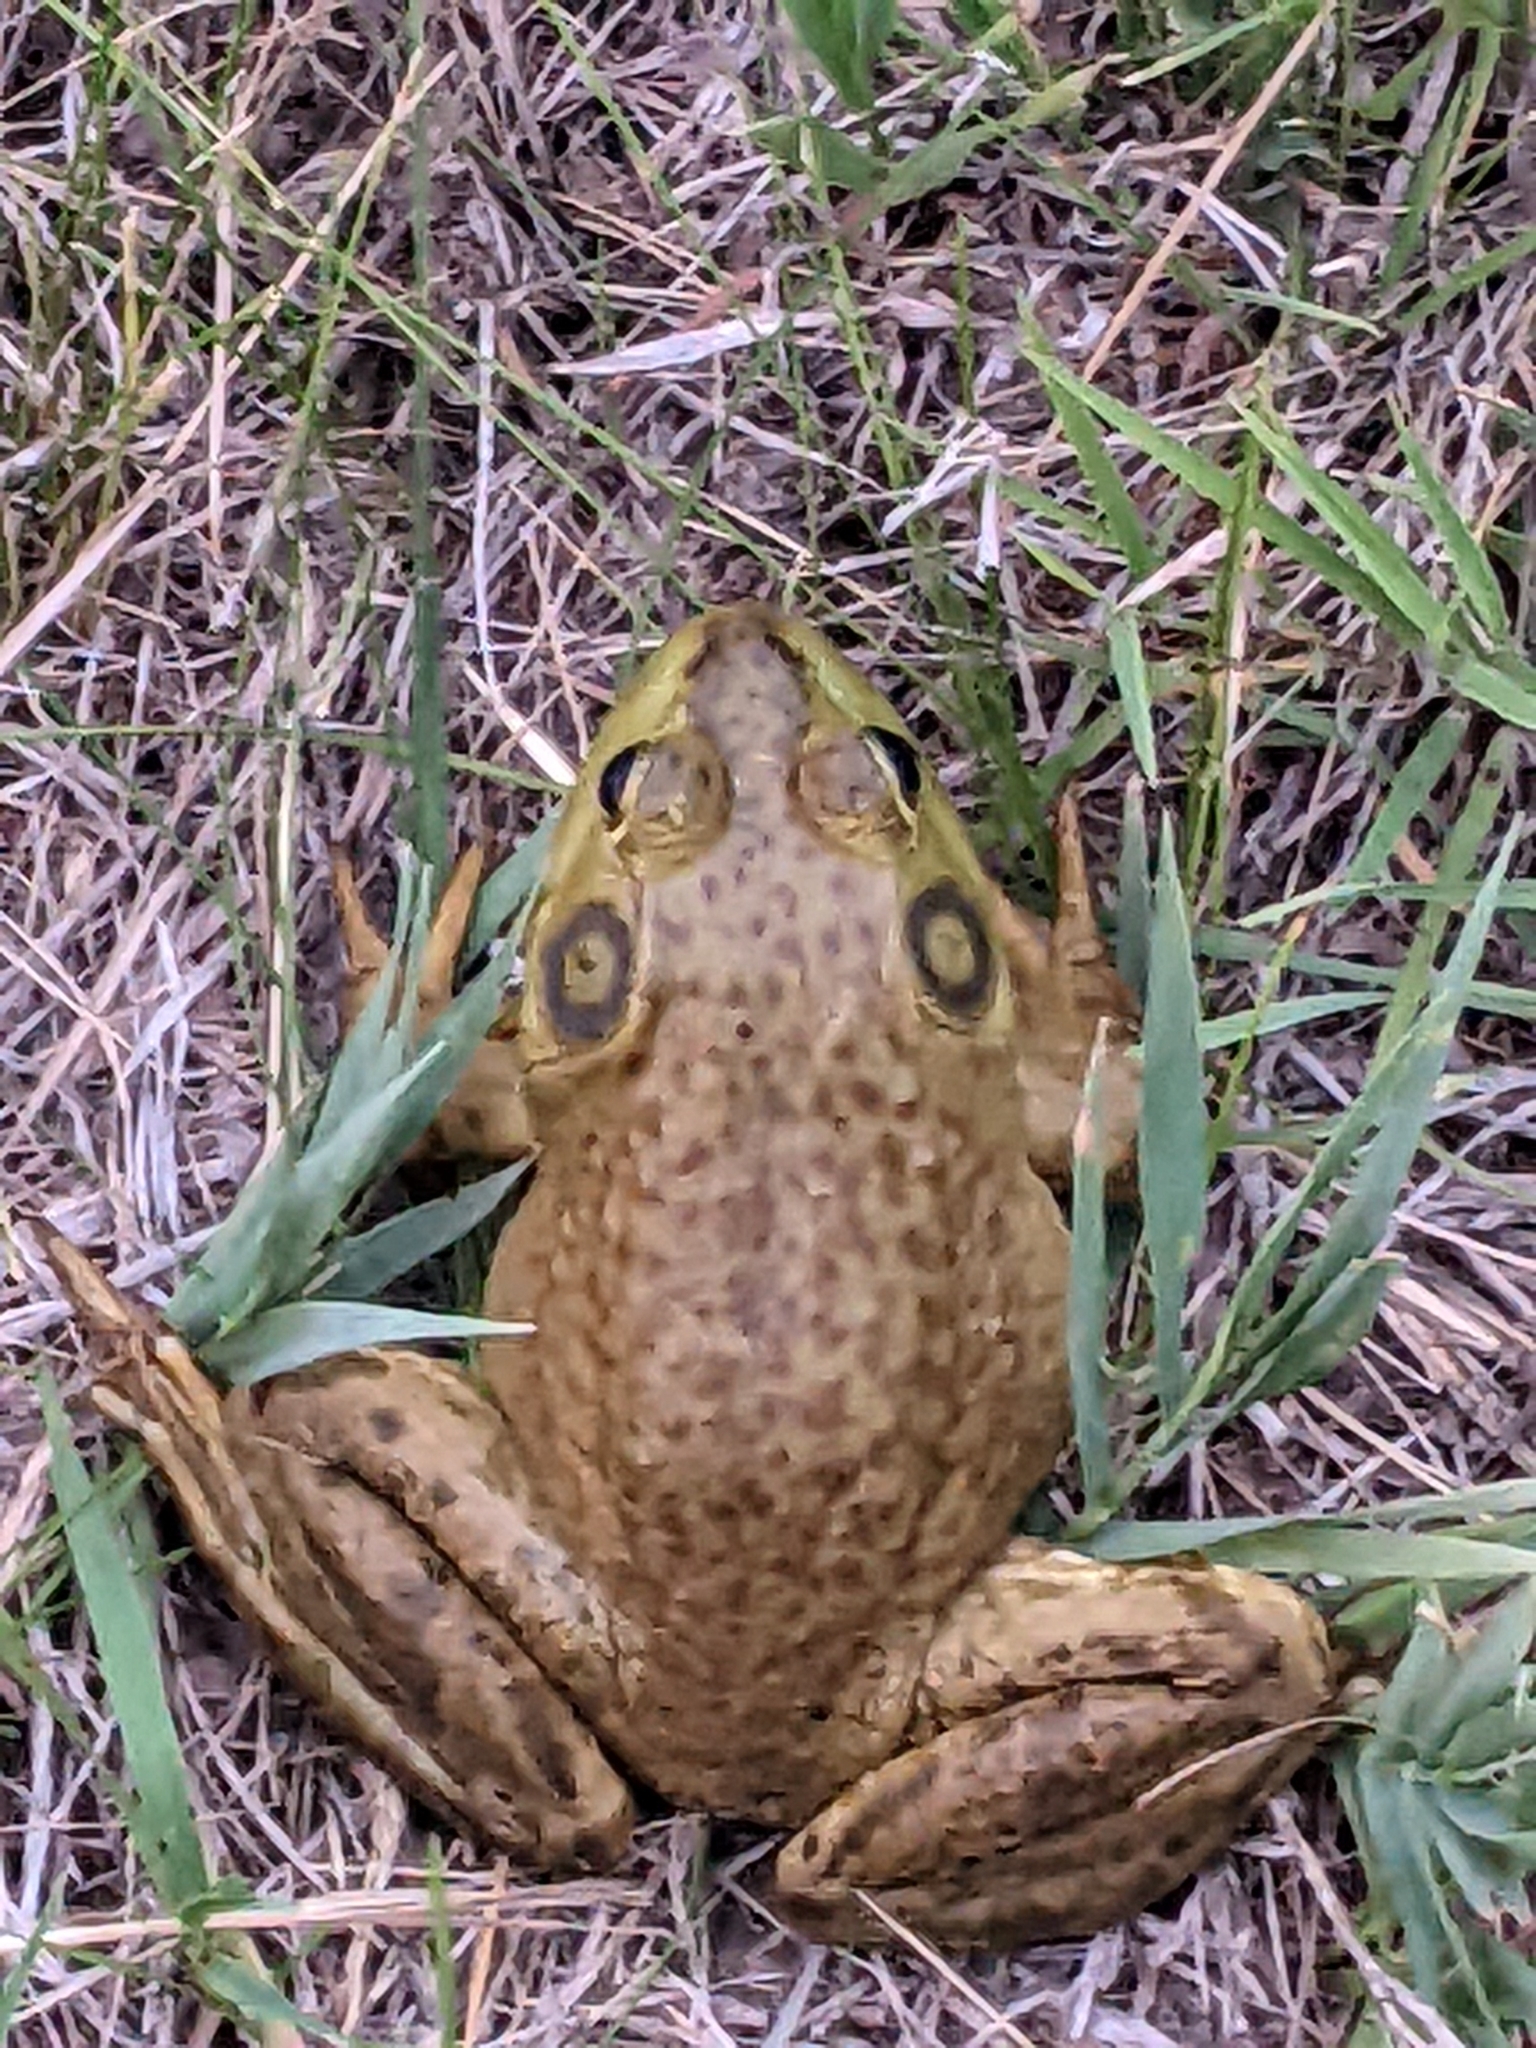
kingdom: Animalia
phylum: Chordata
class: Amphibia
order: Anura
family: Ranidae
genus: Lithobates
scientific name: Lithobates catesbeianus
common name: American bullfrog
